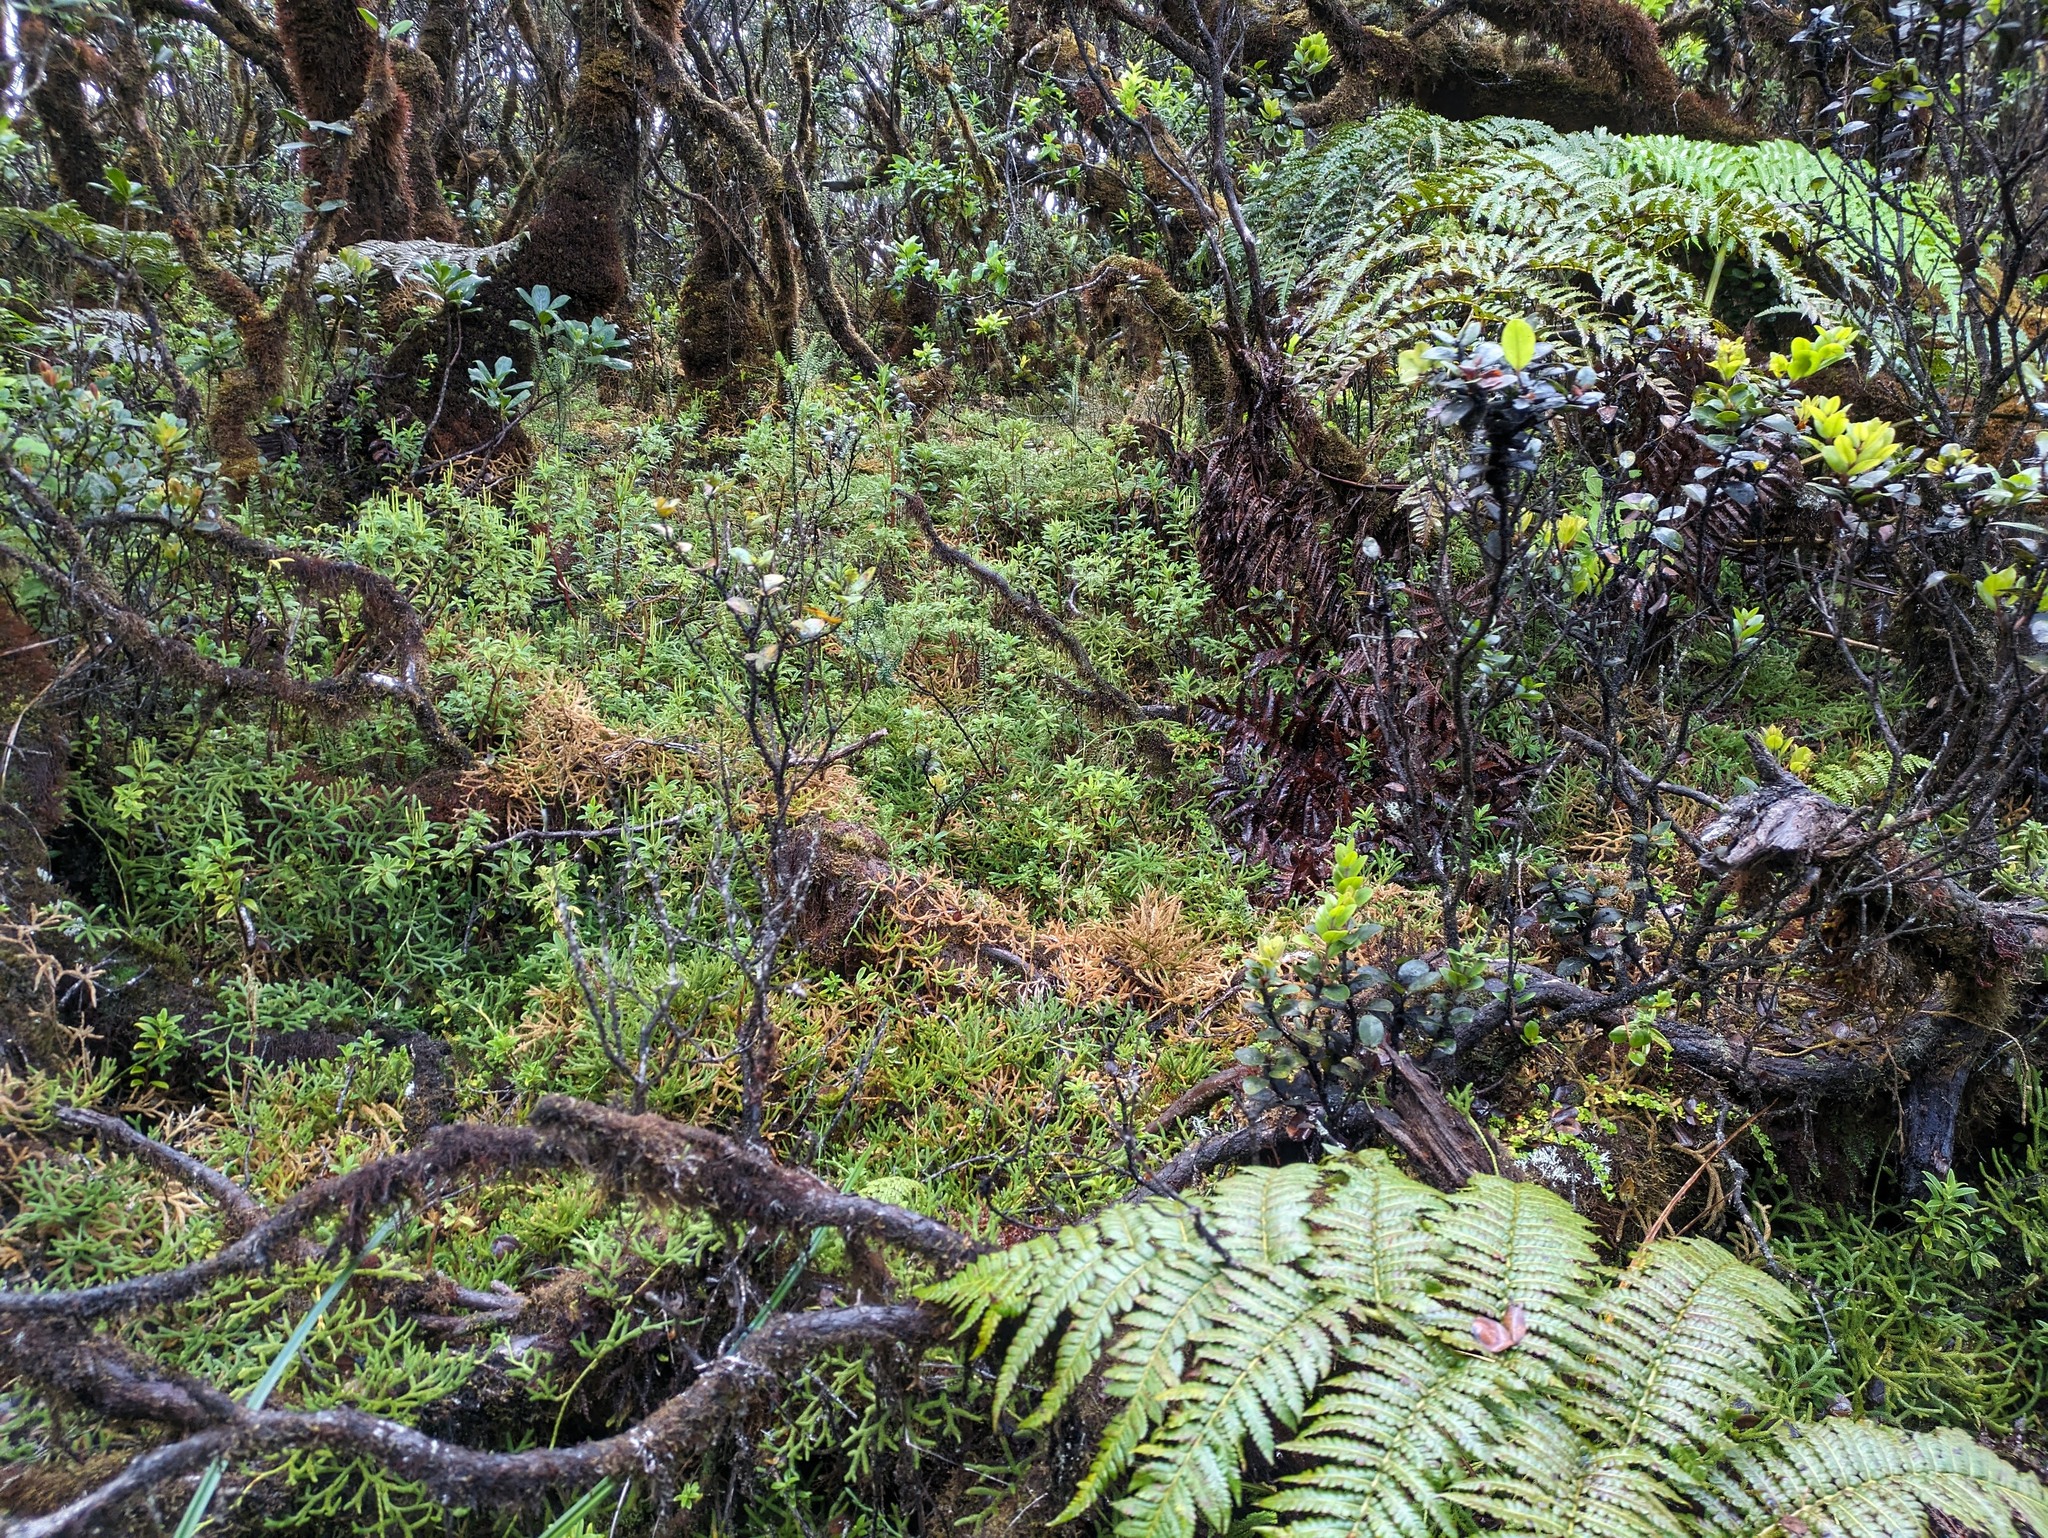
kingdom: Plantae
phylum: Tracheophyta
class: Lycopodiopsida
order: Lycopodiales
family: Lycopodiaceae
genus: Lycopodium
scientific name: Lycopodium venustulum
